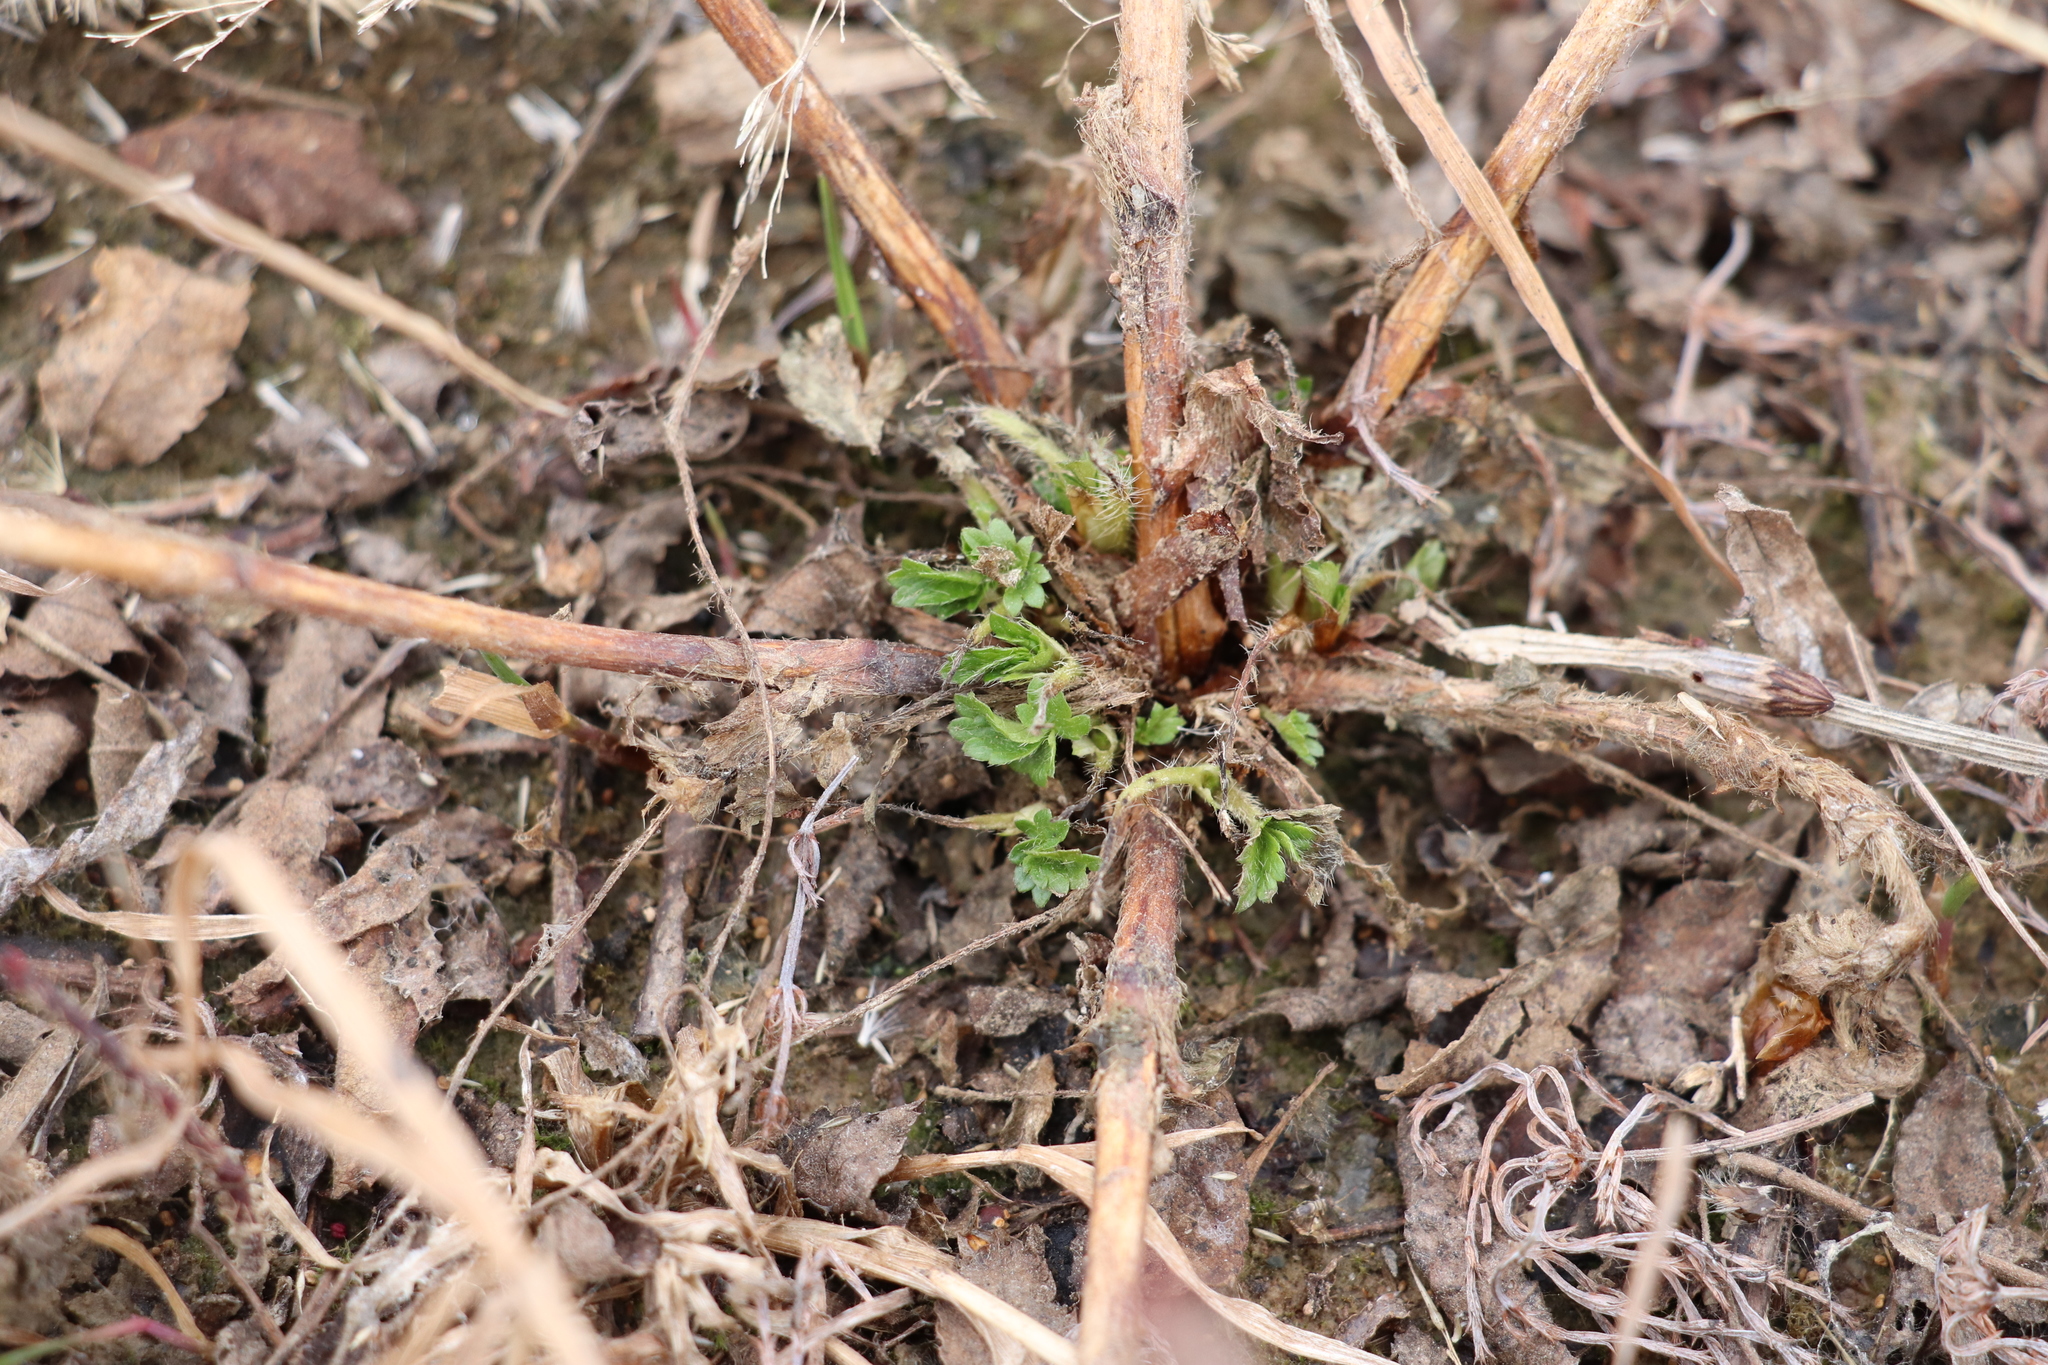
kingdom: Plantae
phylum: Tracheophyta
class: Magnoliopsida
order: Rosales
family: Rosaceae
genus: Potentilla
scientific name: Potentilla argentea
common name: Hoary cinquefoil
